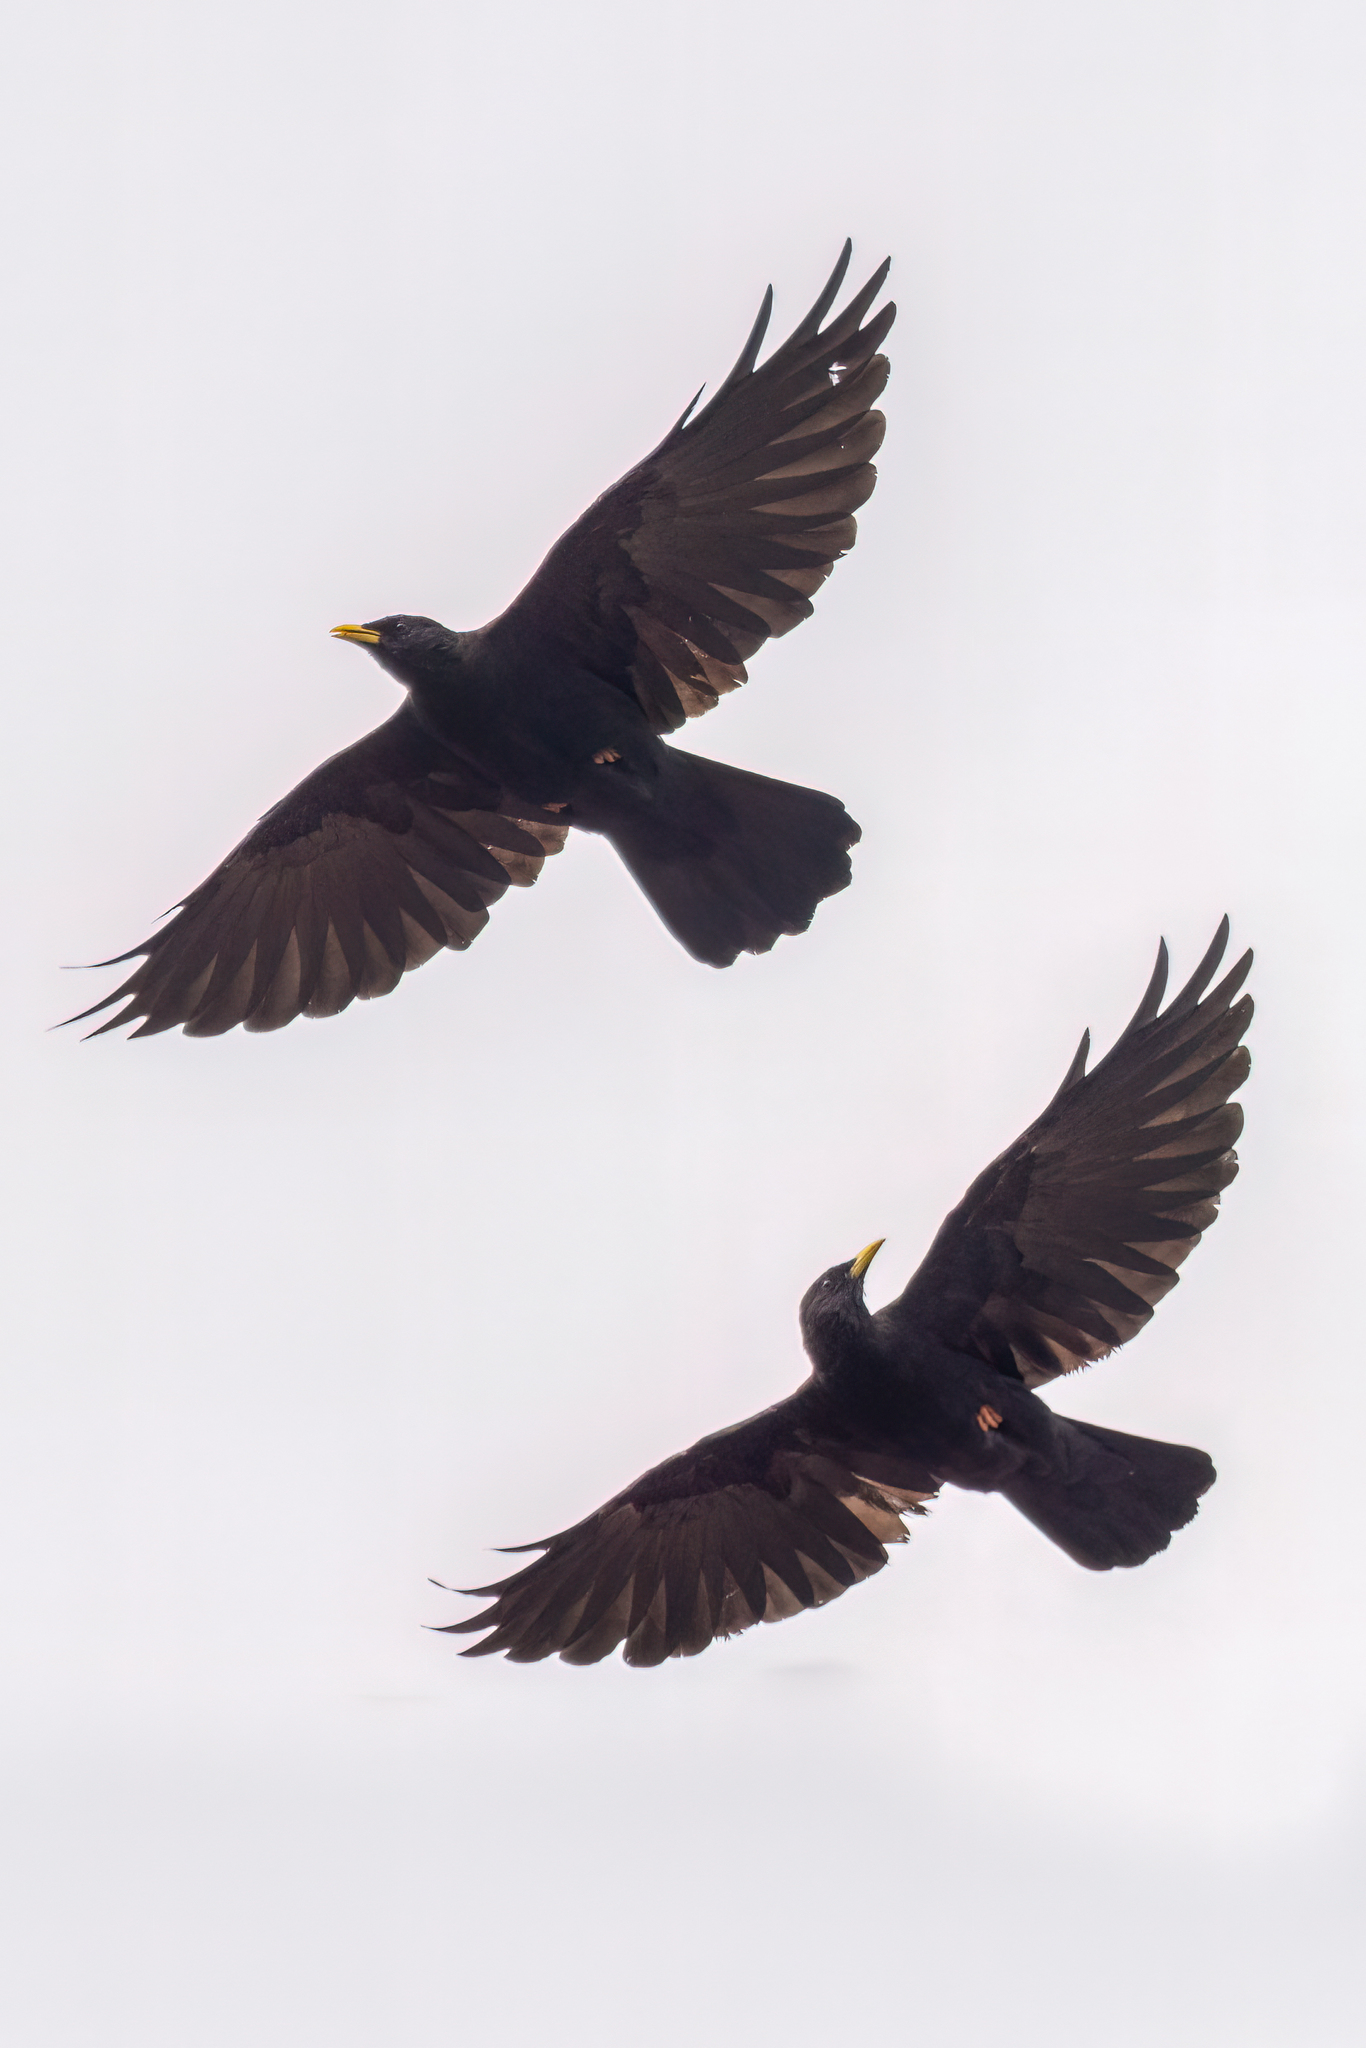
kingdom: Animalia
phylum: Chordata
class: Aves
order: Passeriformes
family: Corvidae
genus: Pyrrhocorax
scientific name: Pyrrhocorax graculus
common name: Alpine chough
